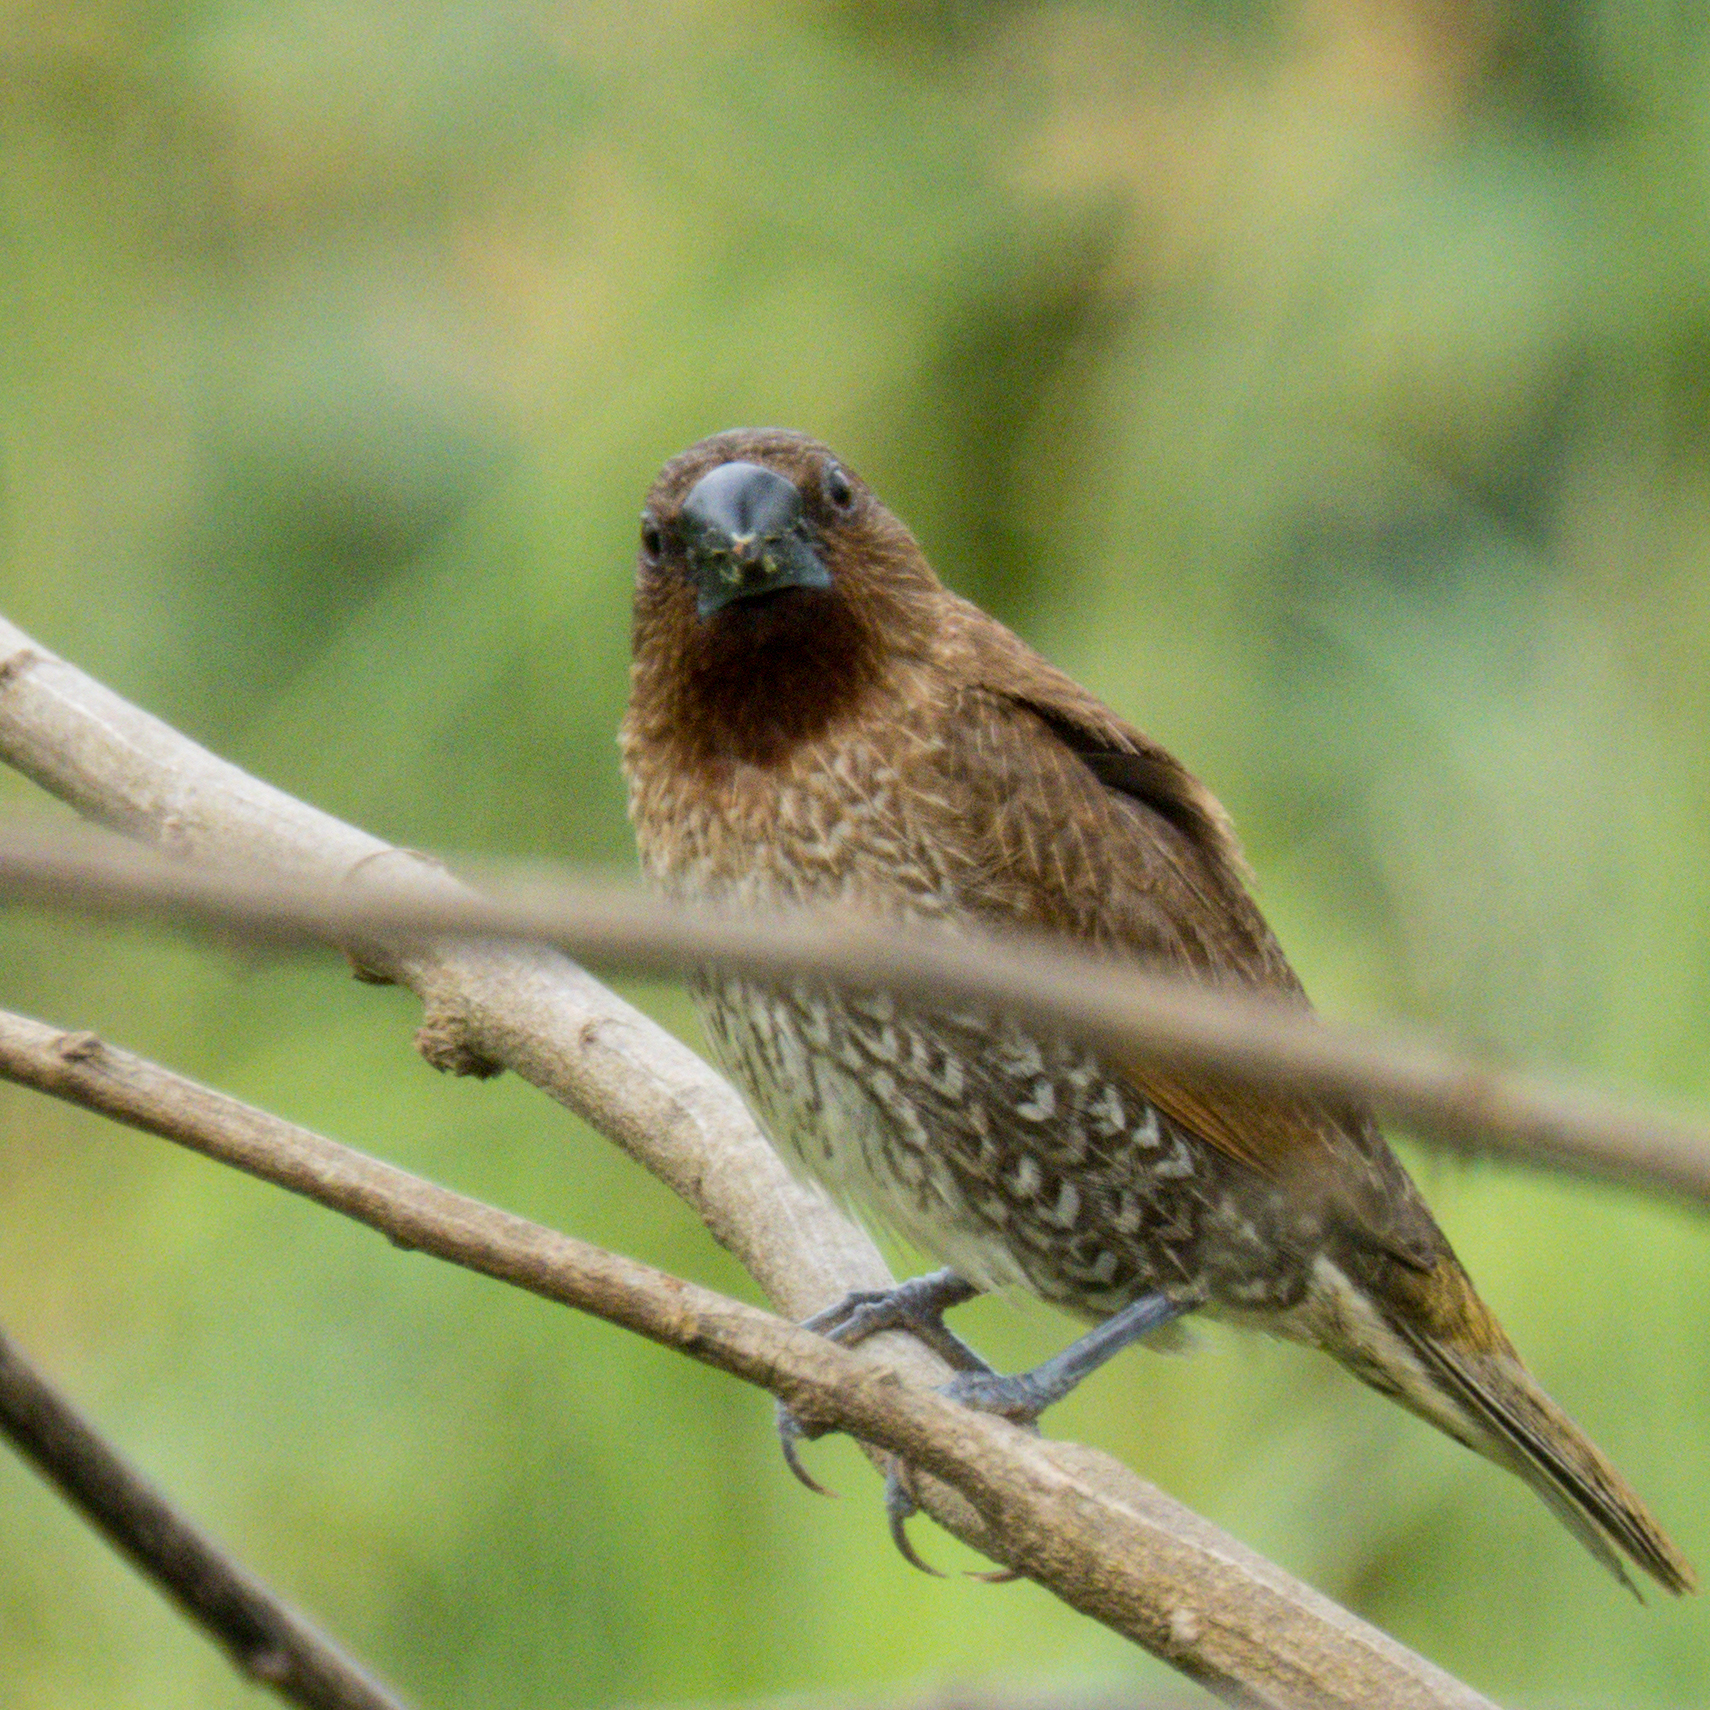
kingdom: Animalia
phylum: Chordata
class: Aves
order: Passeriformes
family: Estrildidae
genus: Lonchura
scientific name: Lonchura punctulata
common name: Scaly-breasted munia
